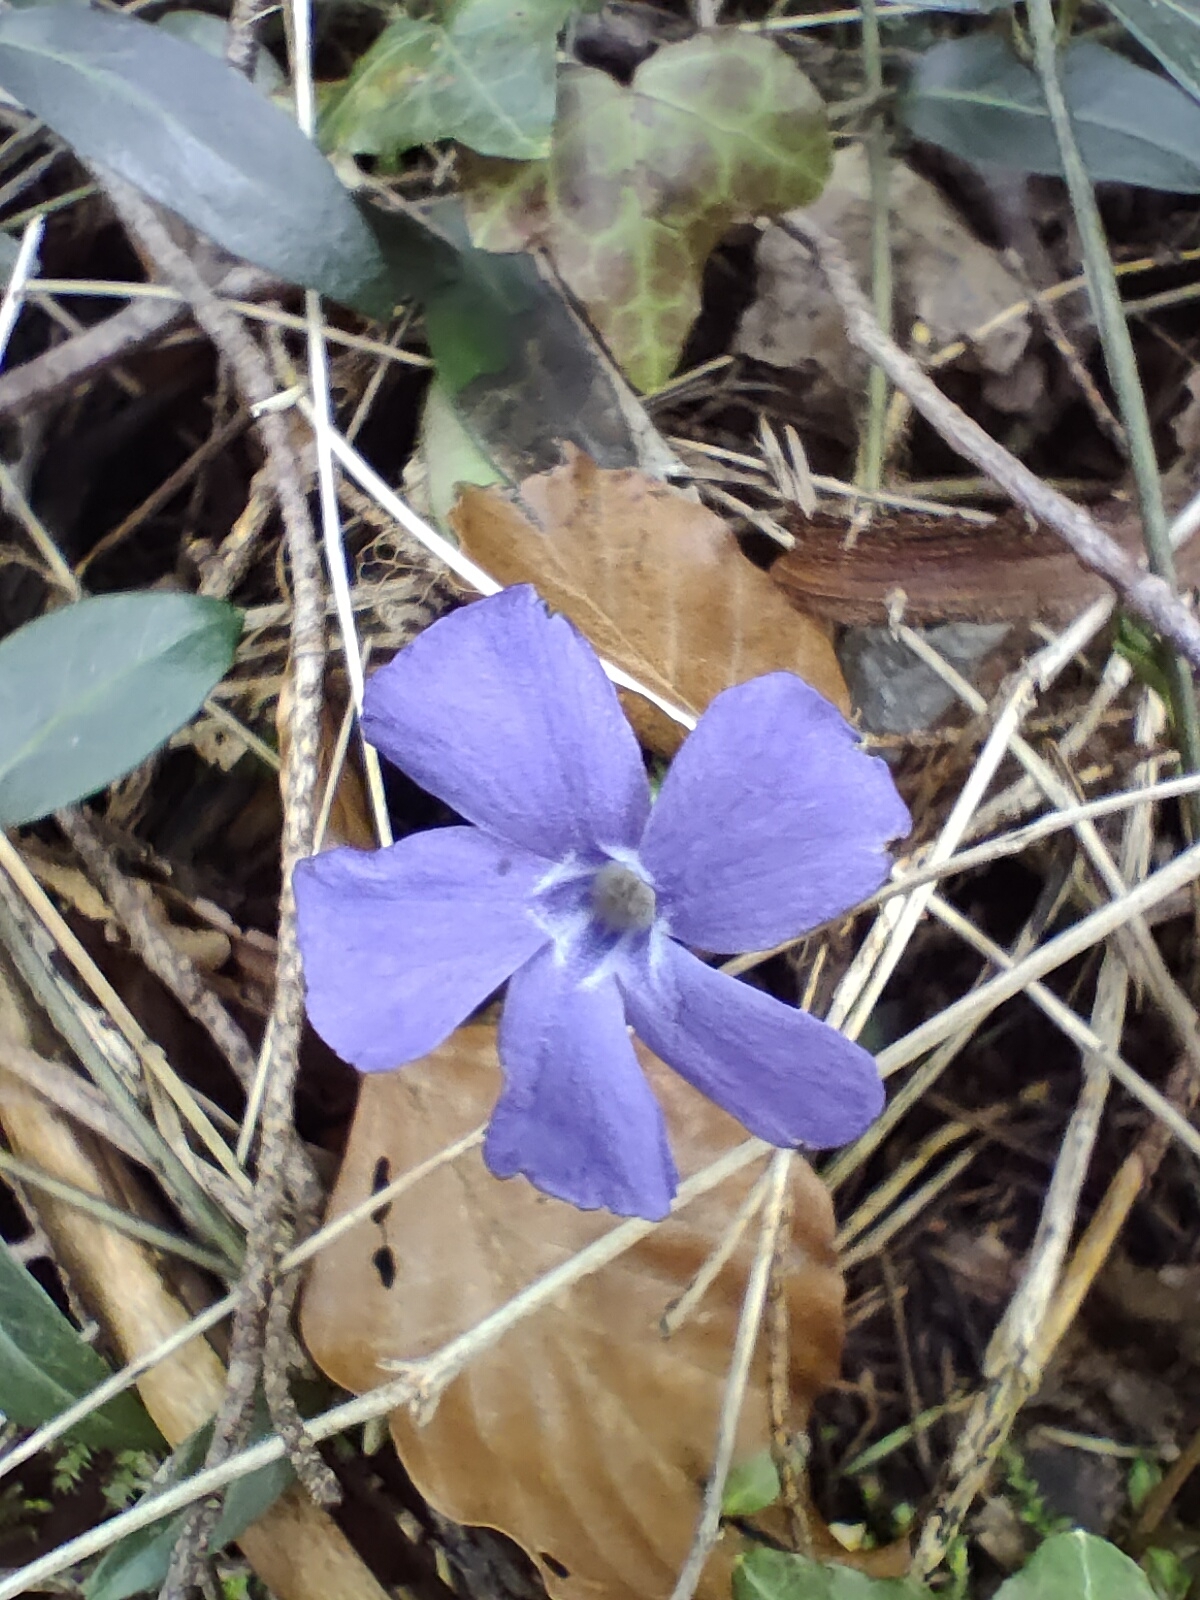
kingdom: Plantae
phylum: Tracheophyta
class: Magnoliopsida
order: Gentianales
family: Apocynaceae
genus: Vinca
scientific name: Vinca minor
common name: Lesser periwinkle
